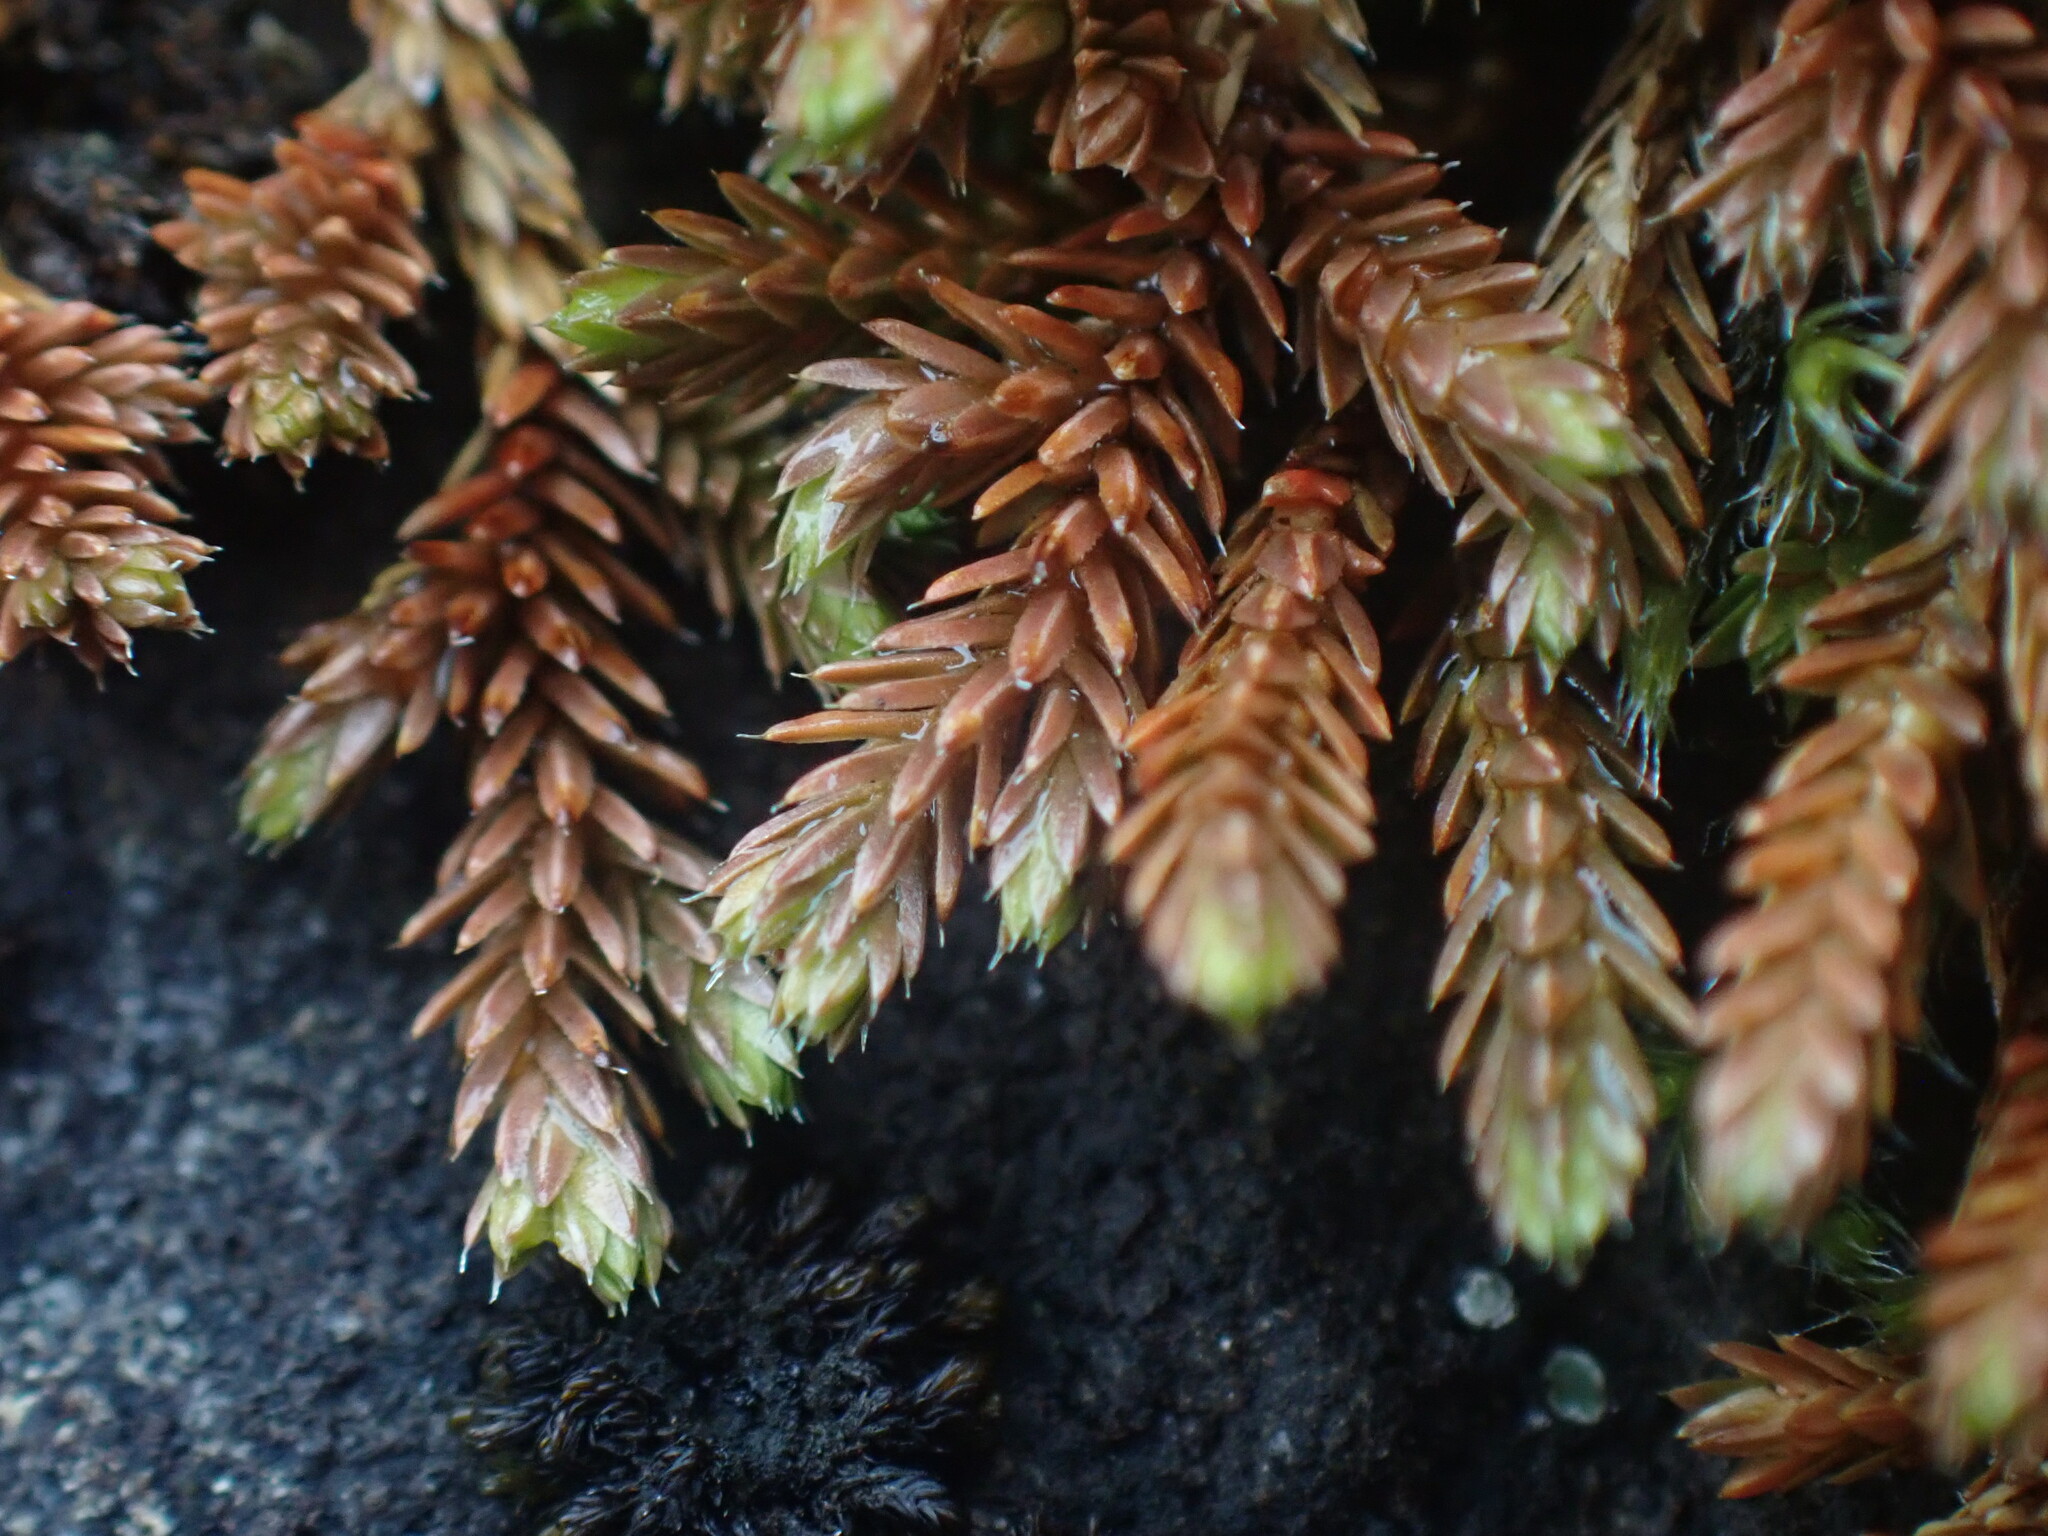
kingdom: Plantae
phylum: Tracheophyta
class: Lycopodiopsida
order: Selaginellales
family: Selaginellaceae
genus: Selaginella
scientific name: Selaginella wallacei
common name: Wallace's selaginella
